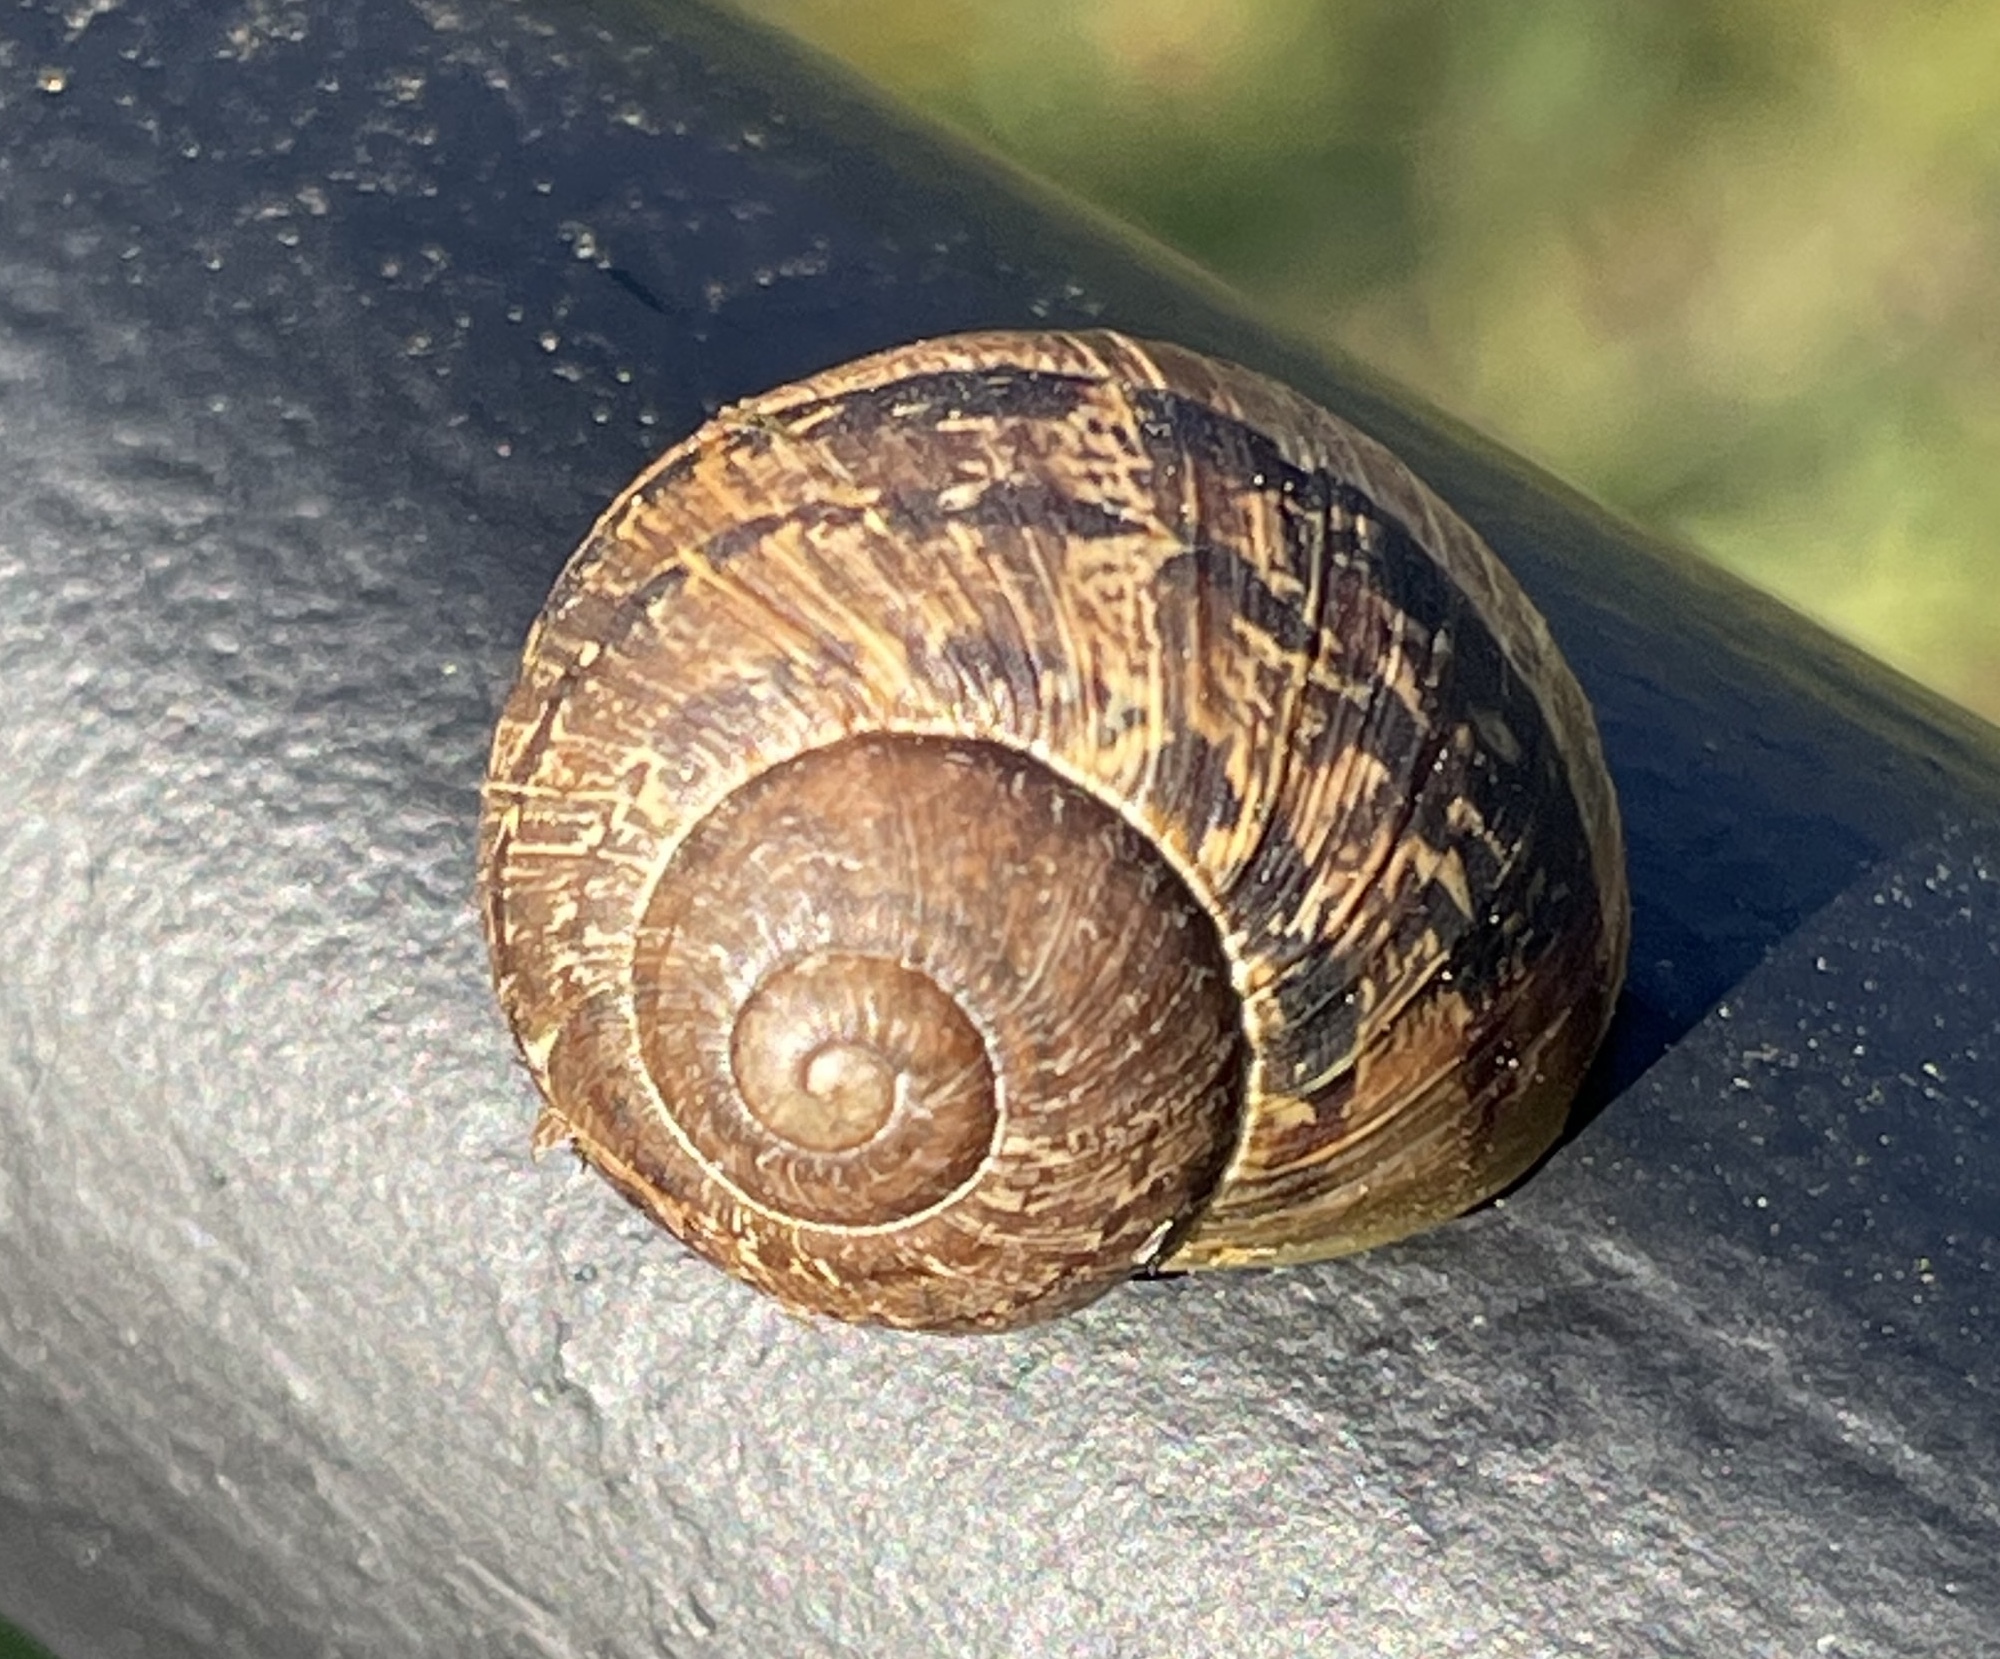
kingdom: Animalia
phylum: Mollusca
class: Gastropoda
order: Stylommatophora
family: Helicidae
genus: Cornu
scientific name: Cornu aspersum
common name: Brown garden snail
